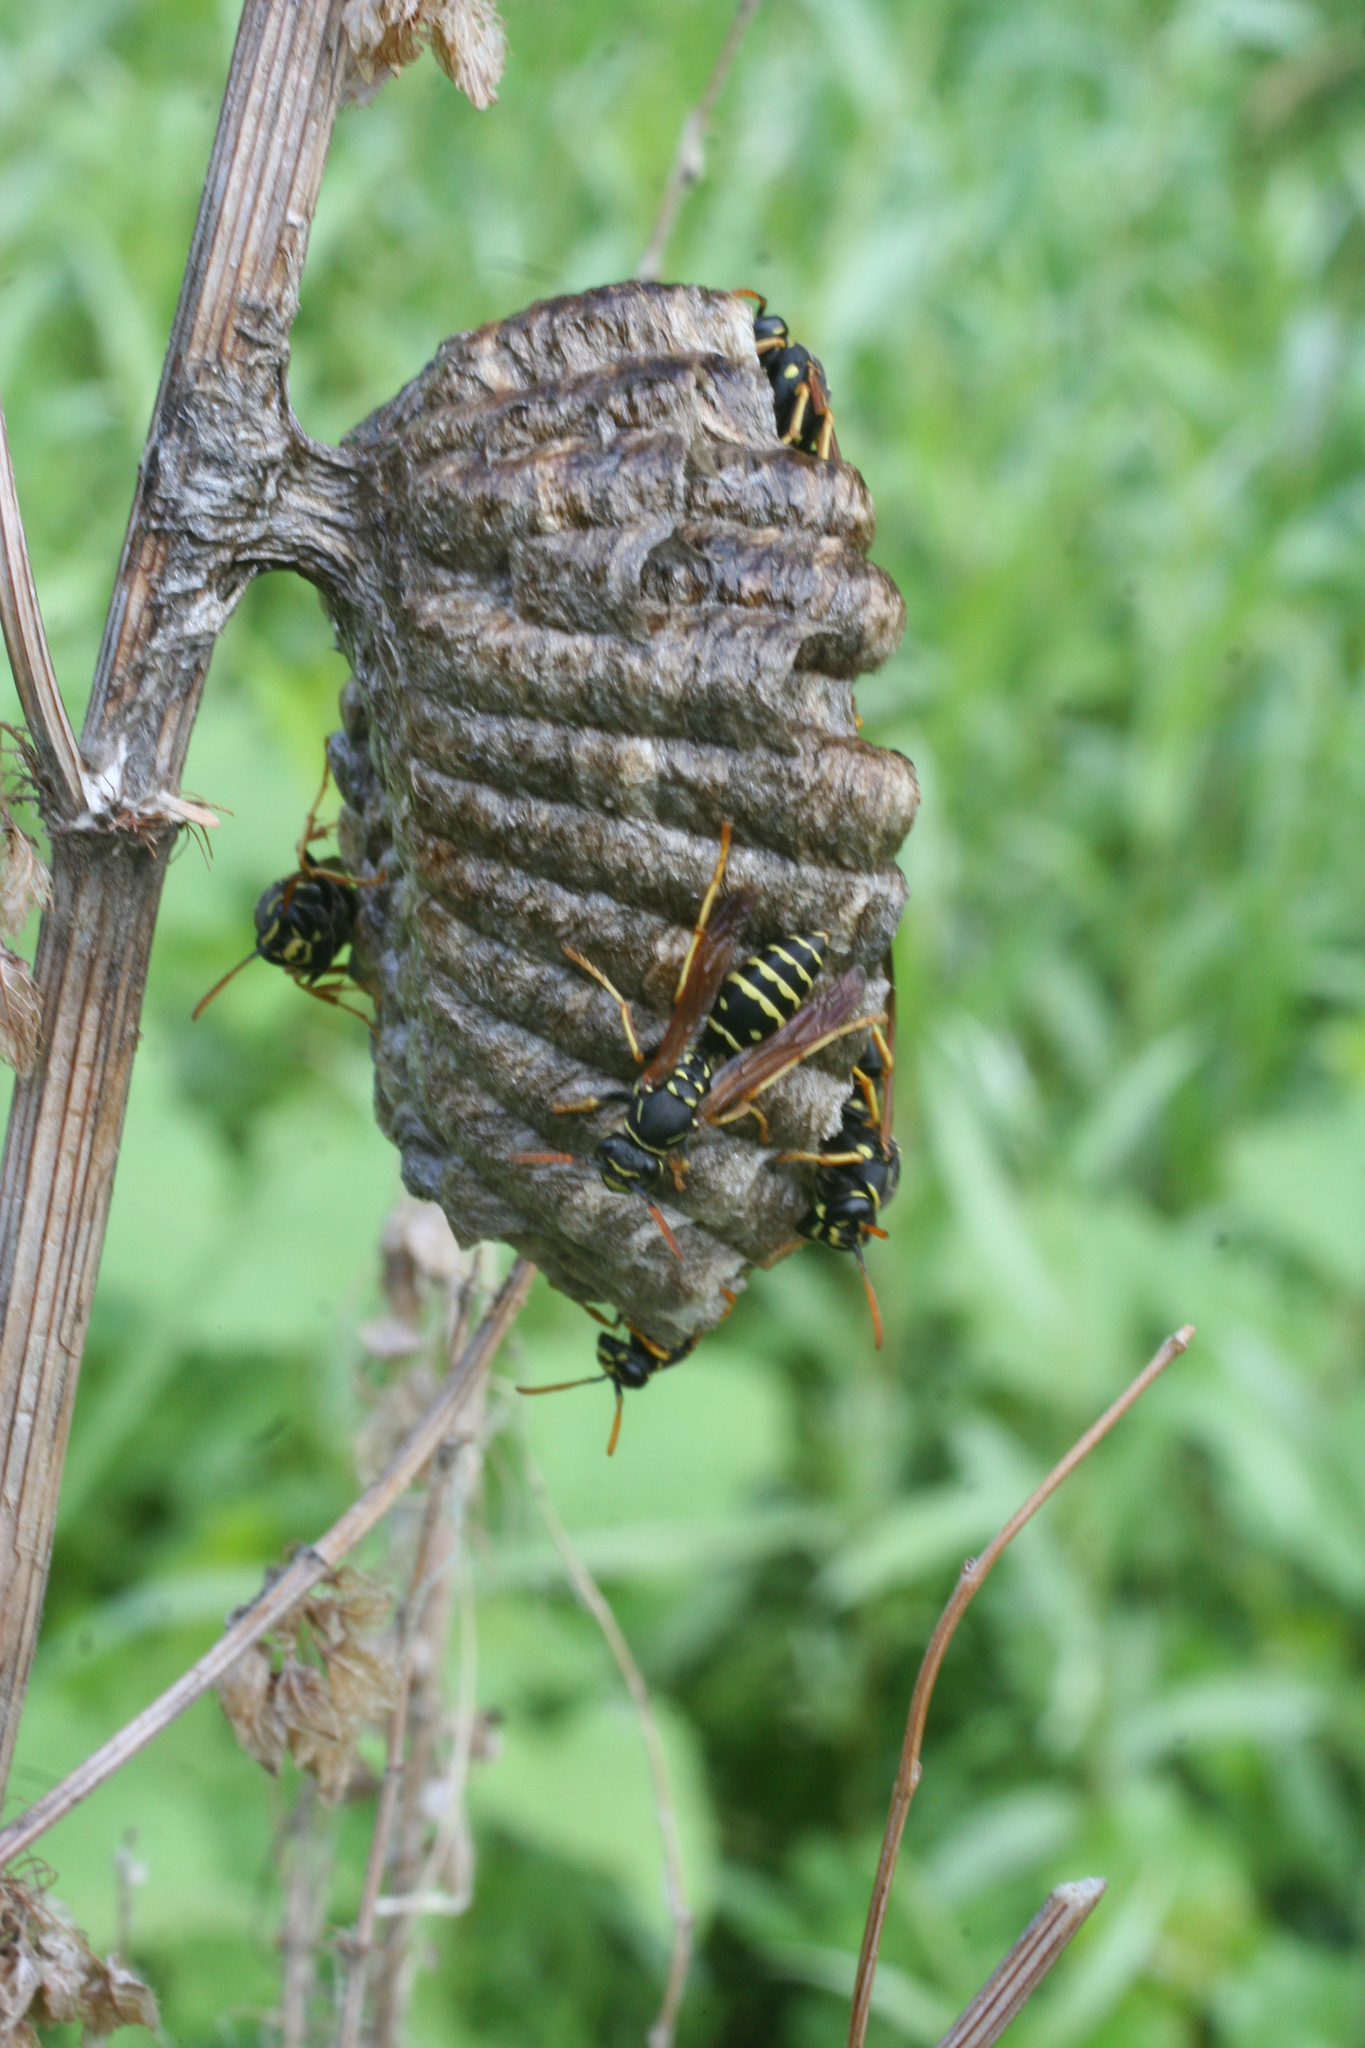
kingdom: Animalia
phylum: Arthropoda
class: Insecta
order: Hymenoptera
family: Eumenidae
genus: Polistes
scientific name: Polistes nimpha
